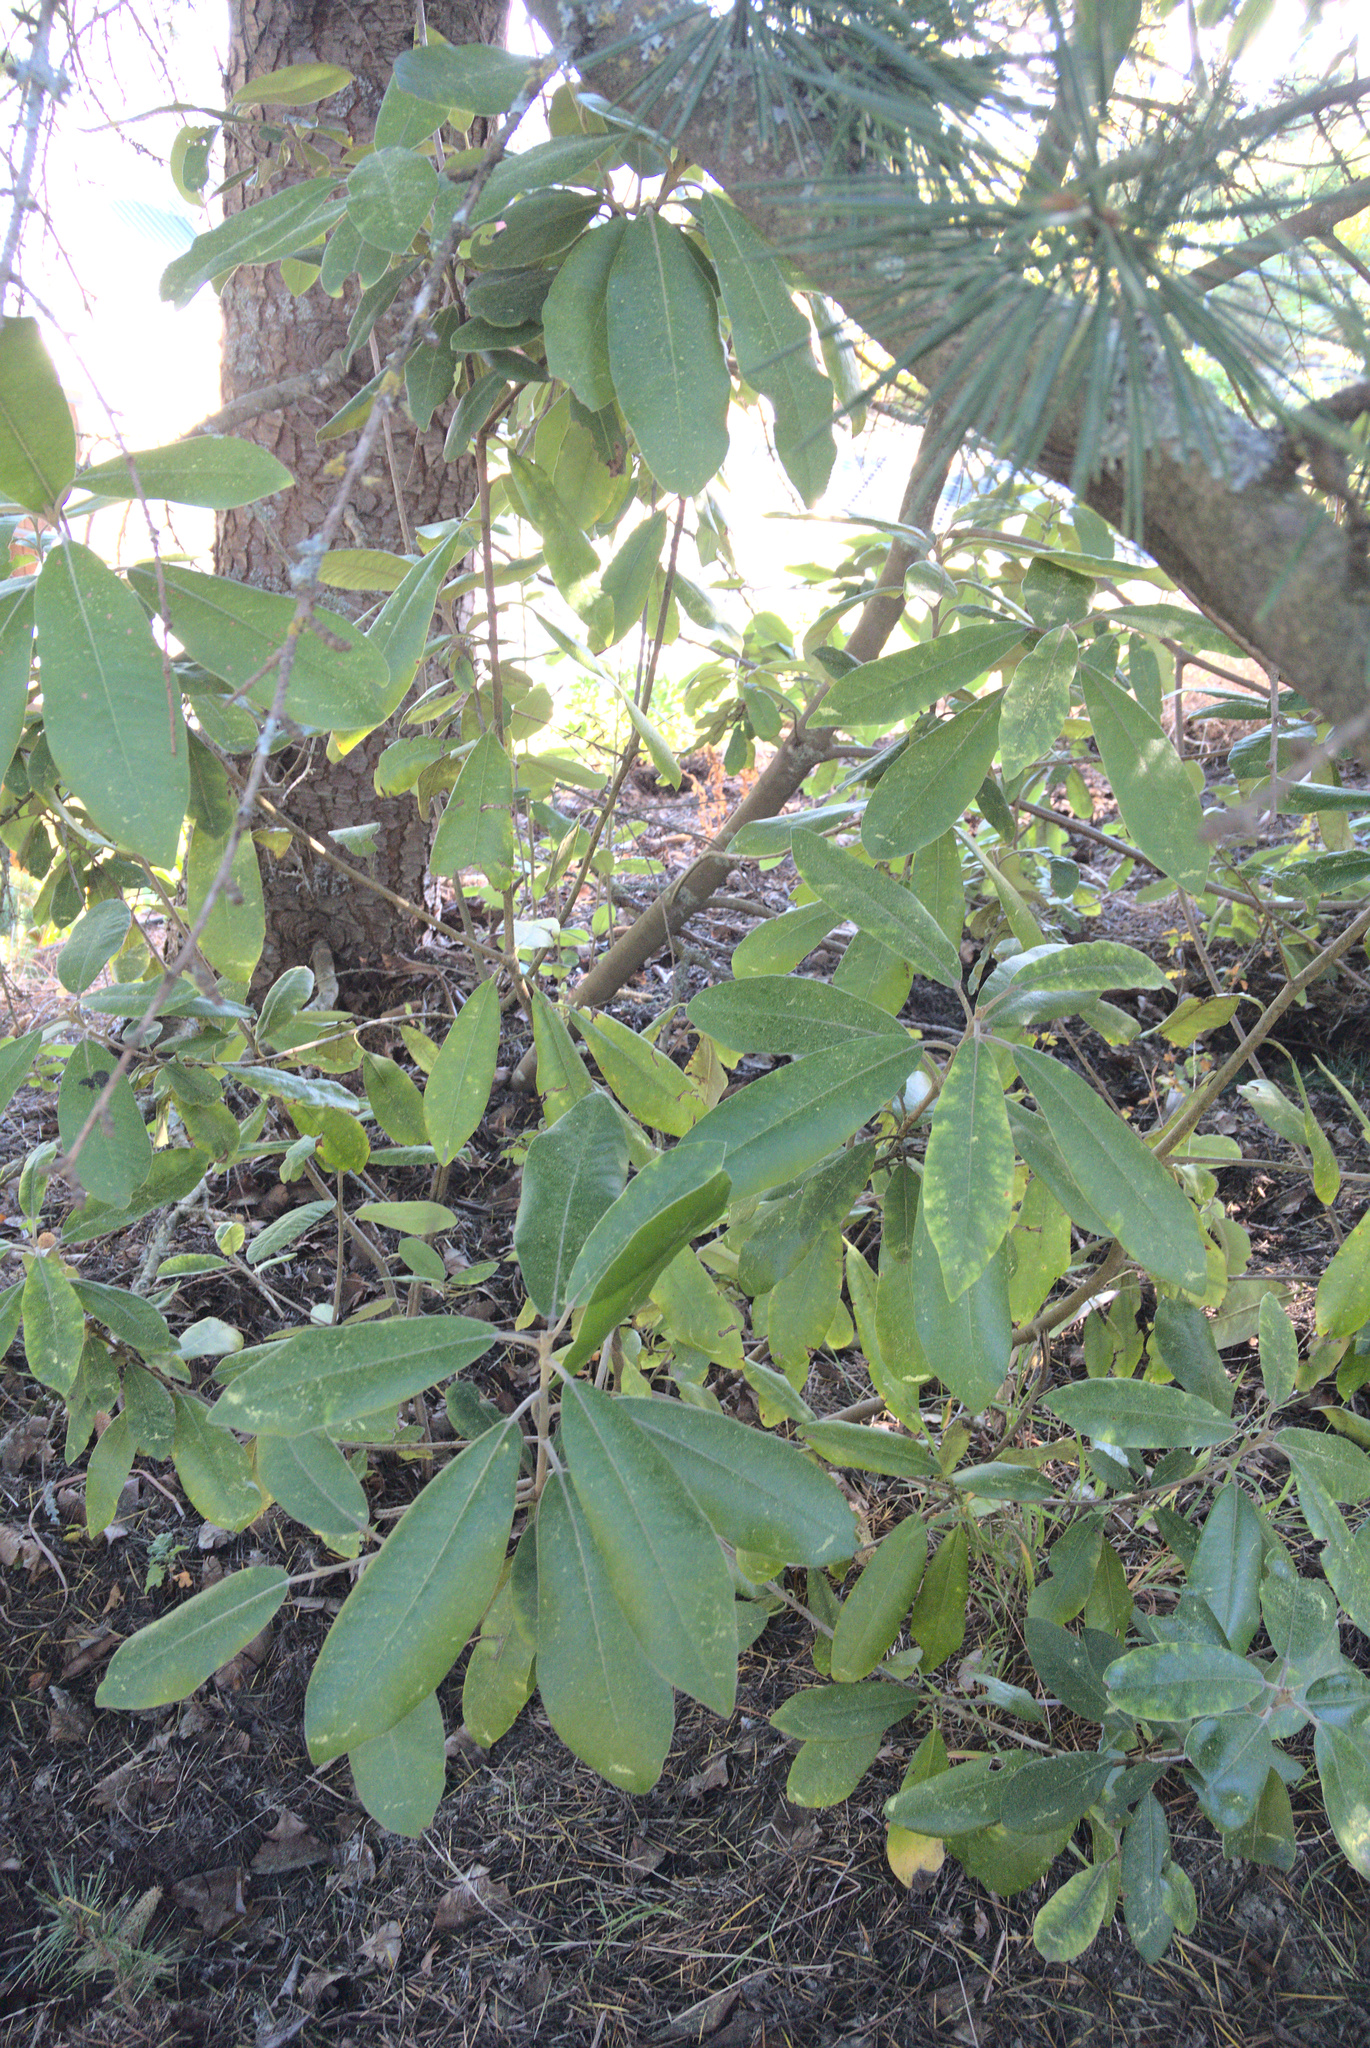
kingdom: Plantae
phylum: Tracheophyta
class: Magnoliopsida
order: Apiales
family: Pittosporaceae
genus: Pittosporum
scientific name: Pittosporum ralphii
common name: Ralph's desertwillow
